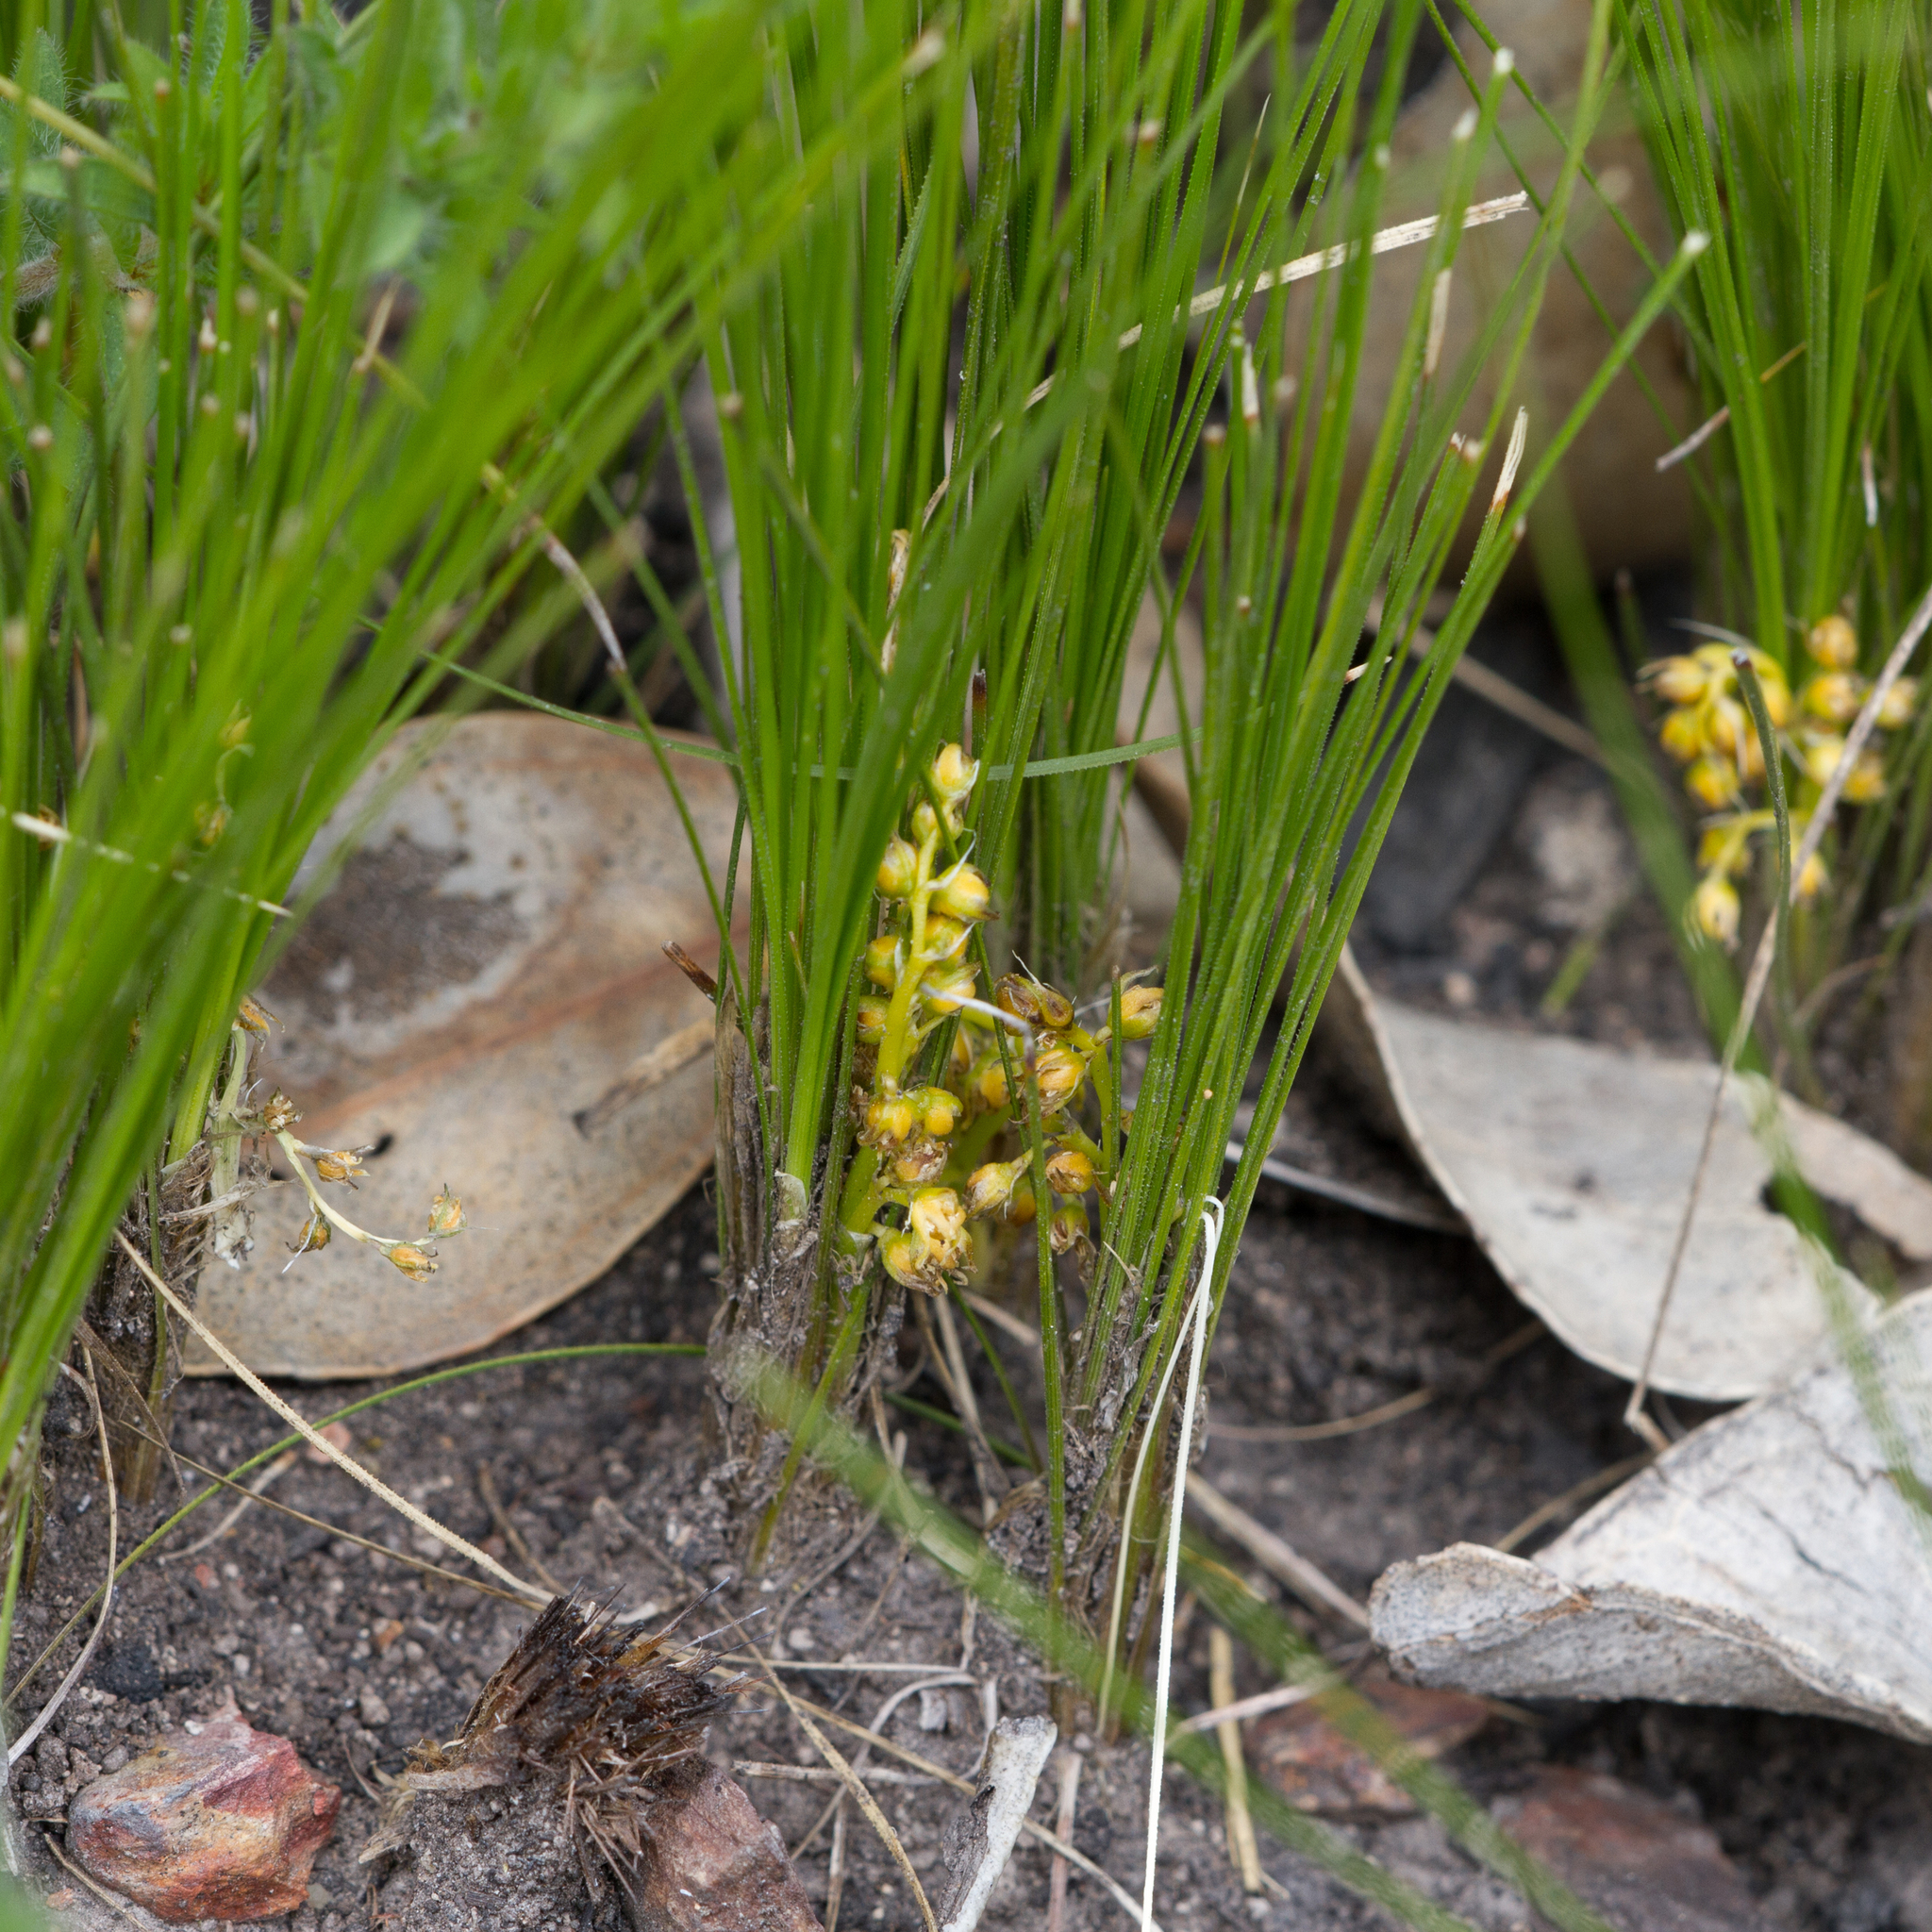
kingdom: Plantae
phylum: Tracheophyta
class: Liliopsida
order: Asparagales
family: Asparagaceae
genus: Lomandra
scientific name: Lomandra fibrata
